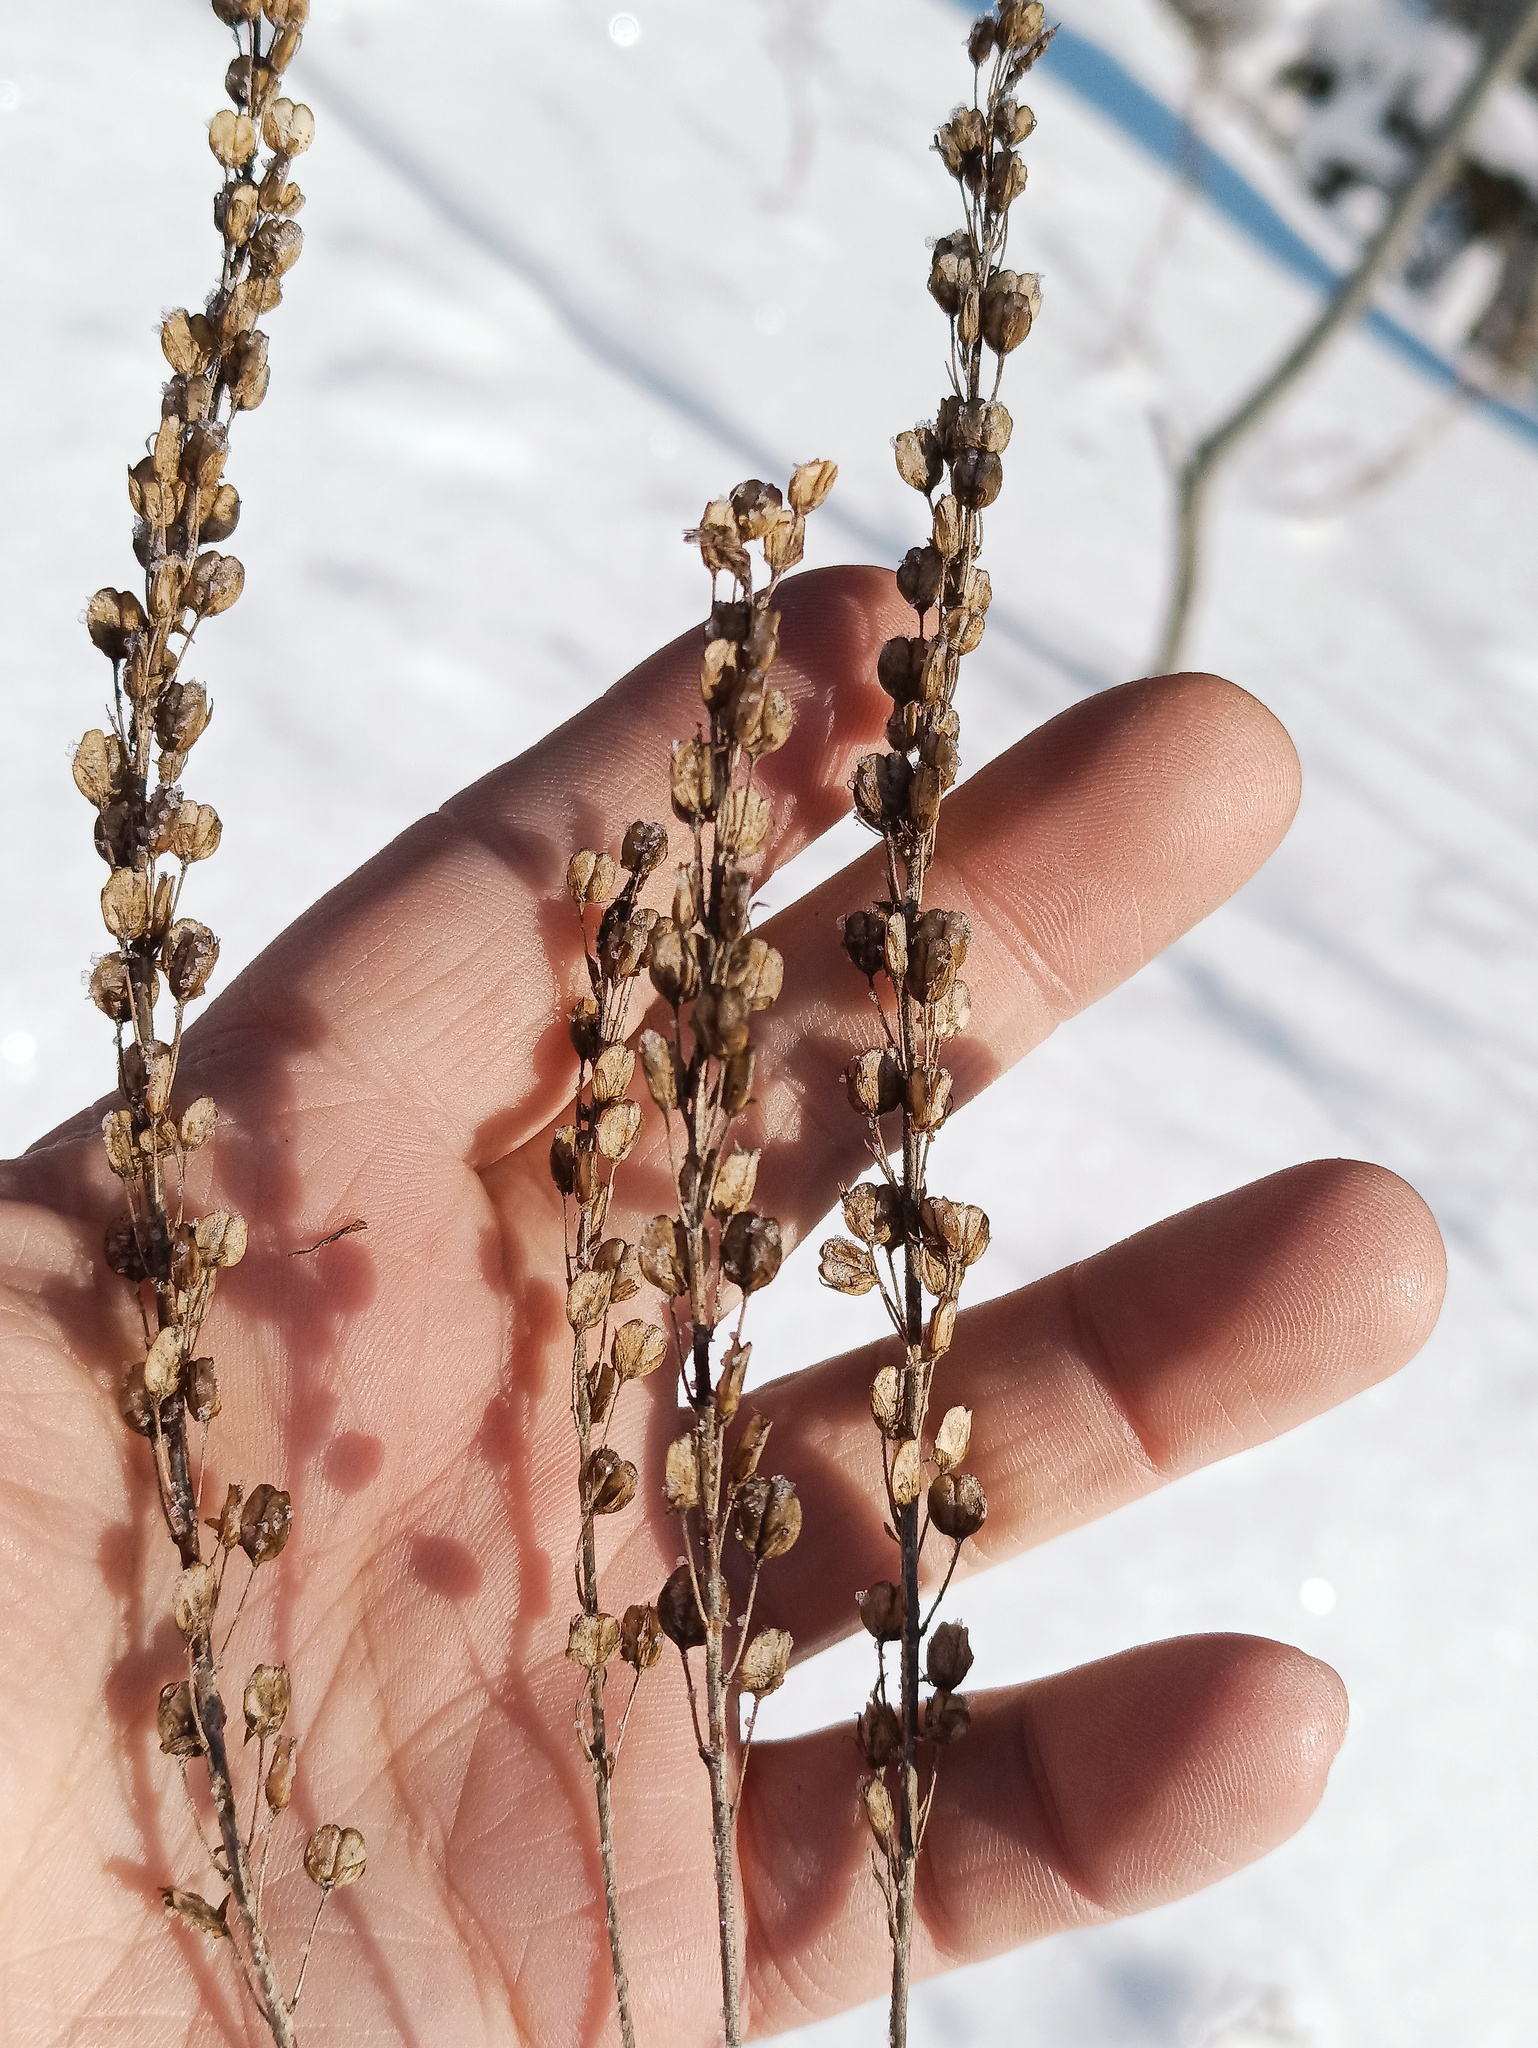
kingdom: Plantae
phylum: Tracheophyta
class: Magnoliopsida
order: Lamiales
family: Plantaginaceae
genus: Veronica
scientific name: Veronica longifolia
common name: Garden speedwell
